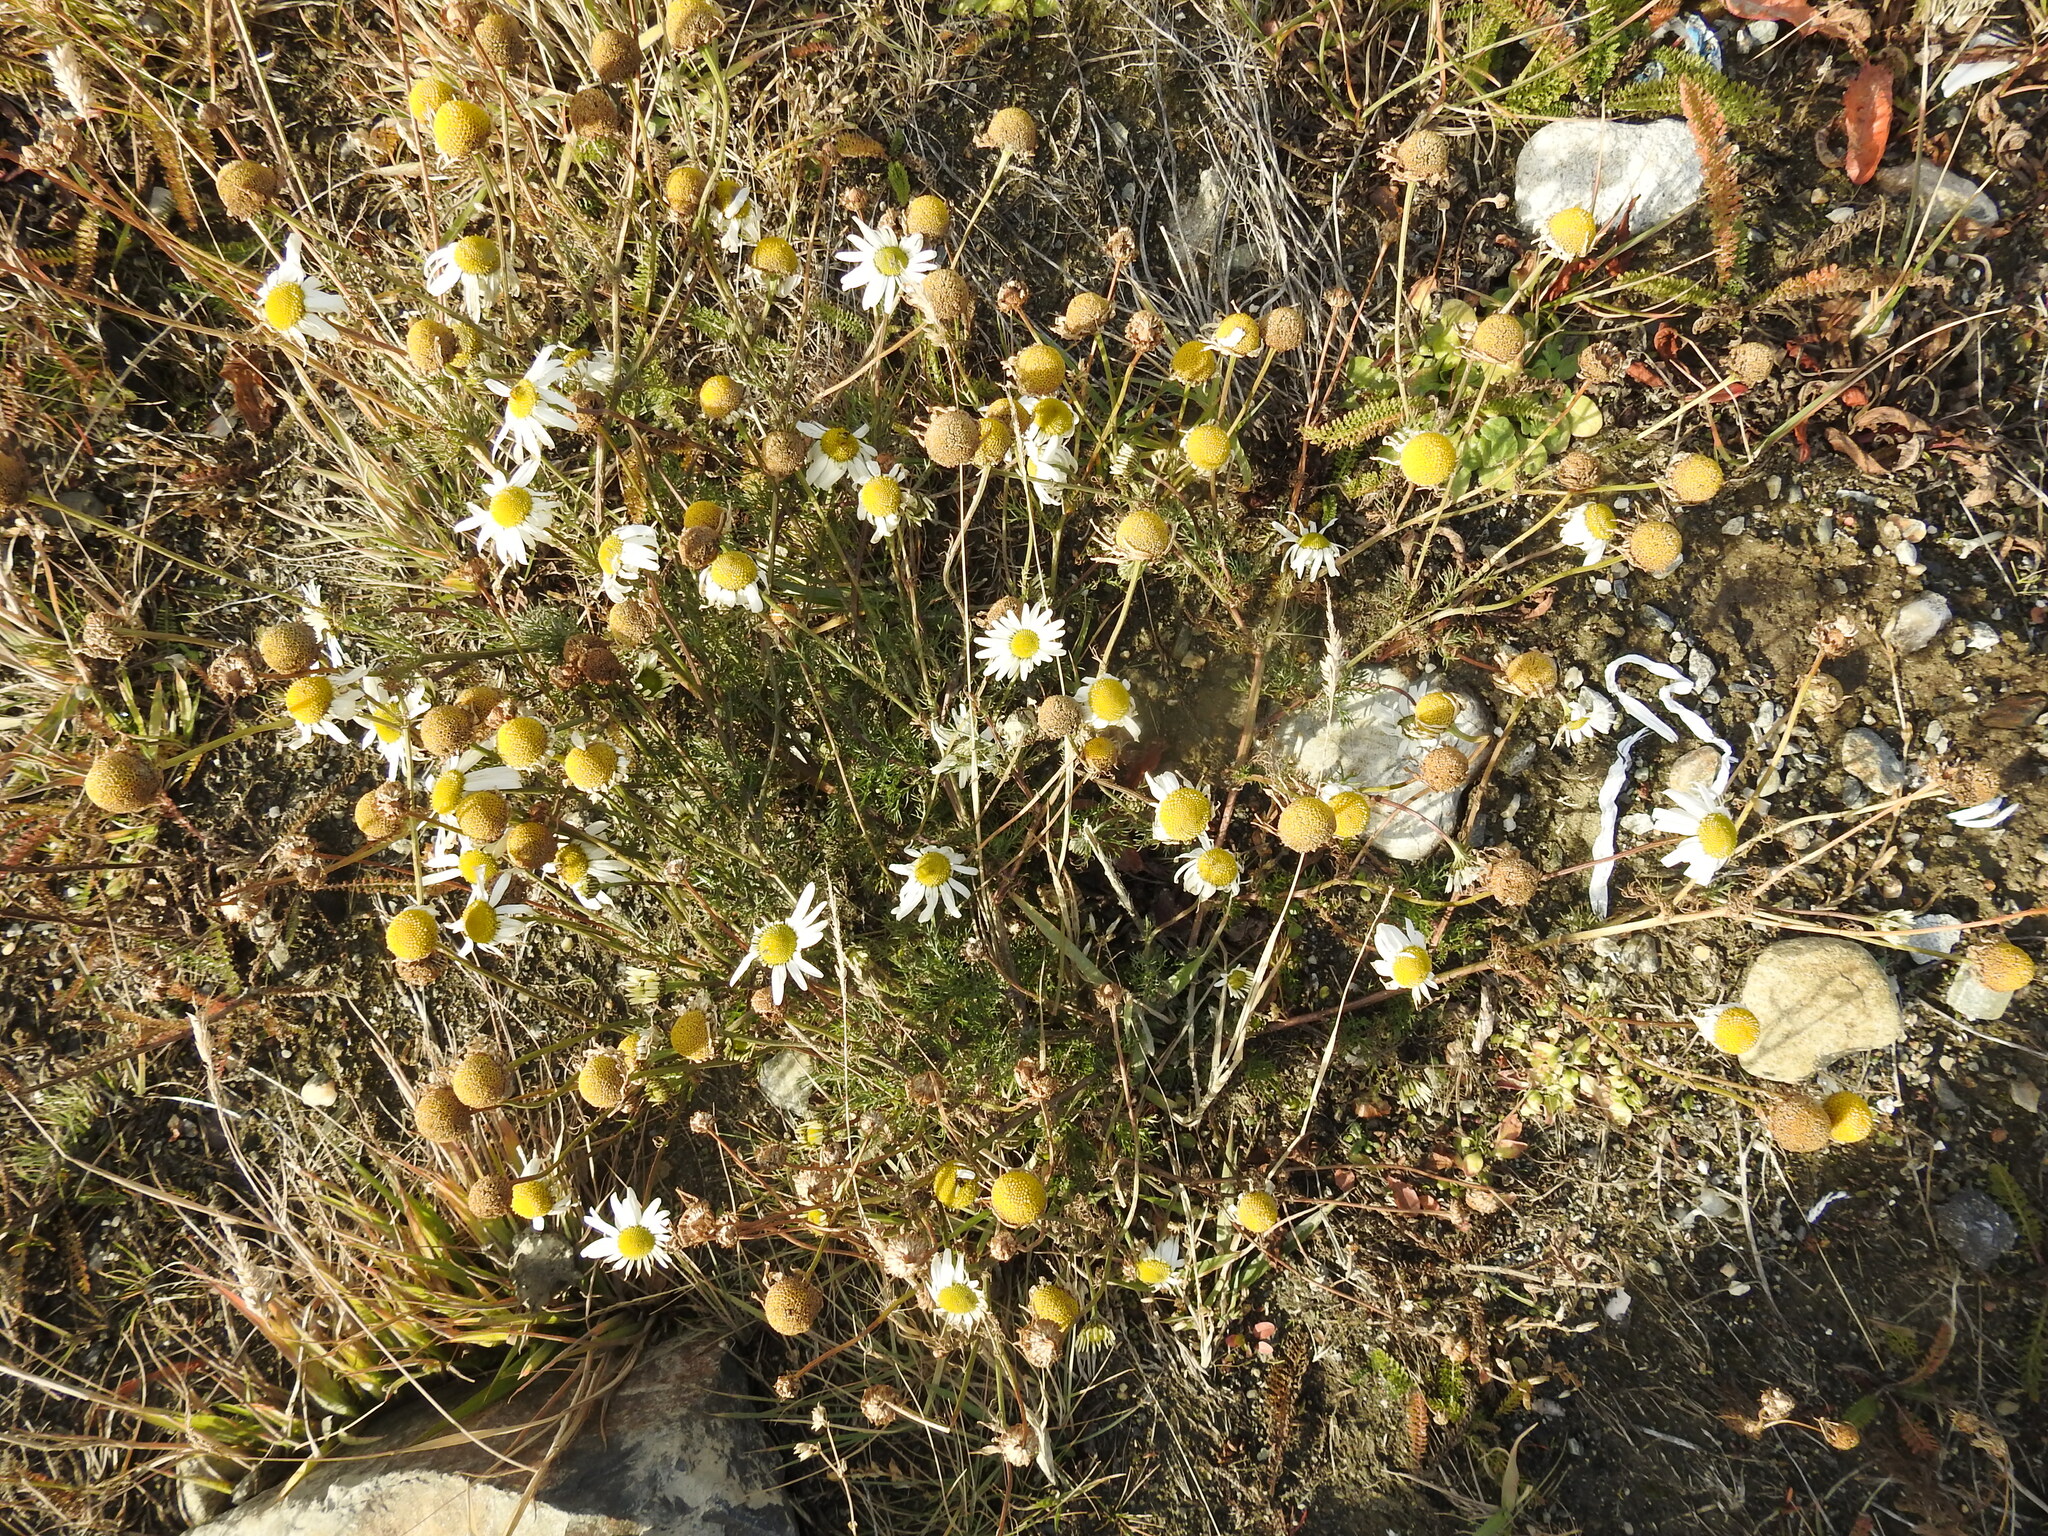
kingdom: Plantae
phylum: Tracheophyta
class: Magnoliopsida
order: Asterales
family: Asteraceae
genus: Tripleurospermum
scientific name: Tripleurospermum inodorum
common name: Scentless mayweed
